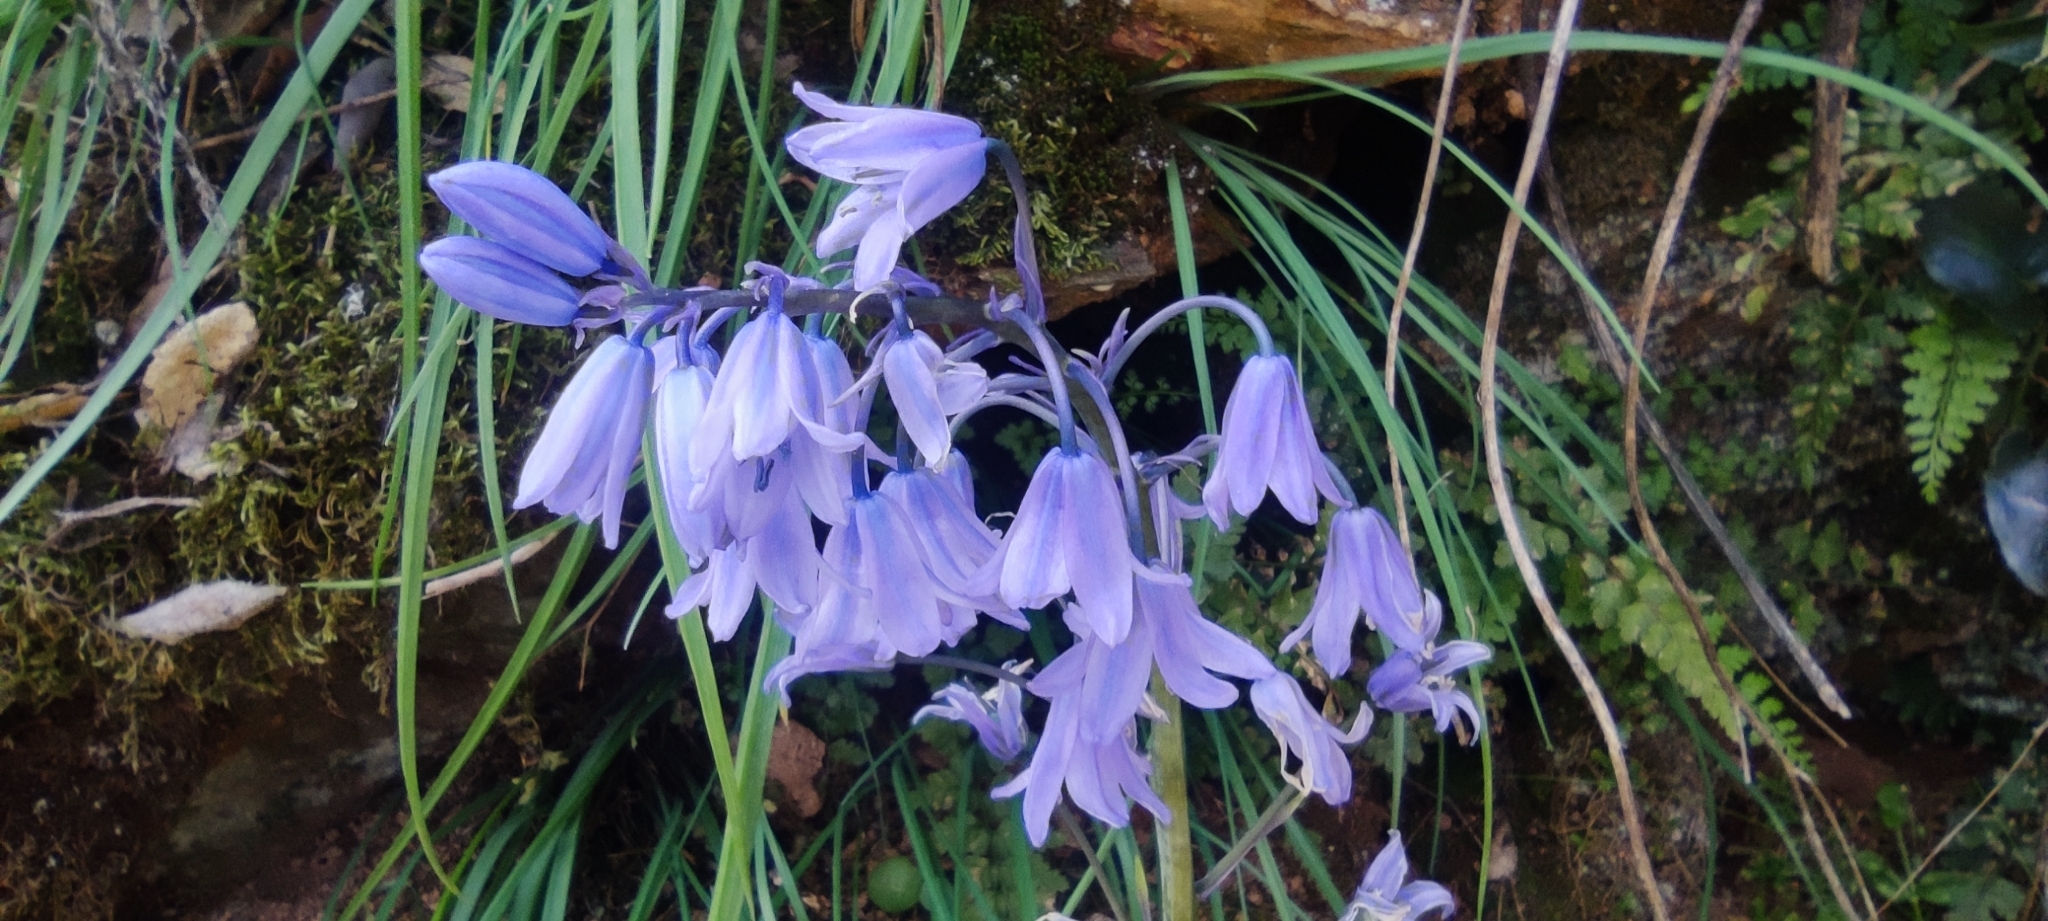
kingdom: Plantae
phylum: Tracheophyta
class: Liliopsida
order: Asparagales
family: Asparagaceae
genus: Hyacinthoides
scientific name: Hyacinthoides hispanica
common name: Spanish bluebell
